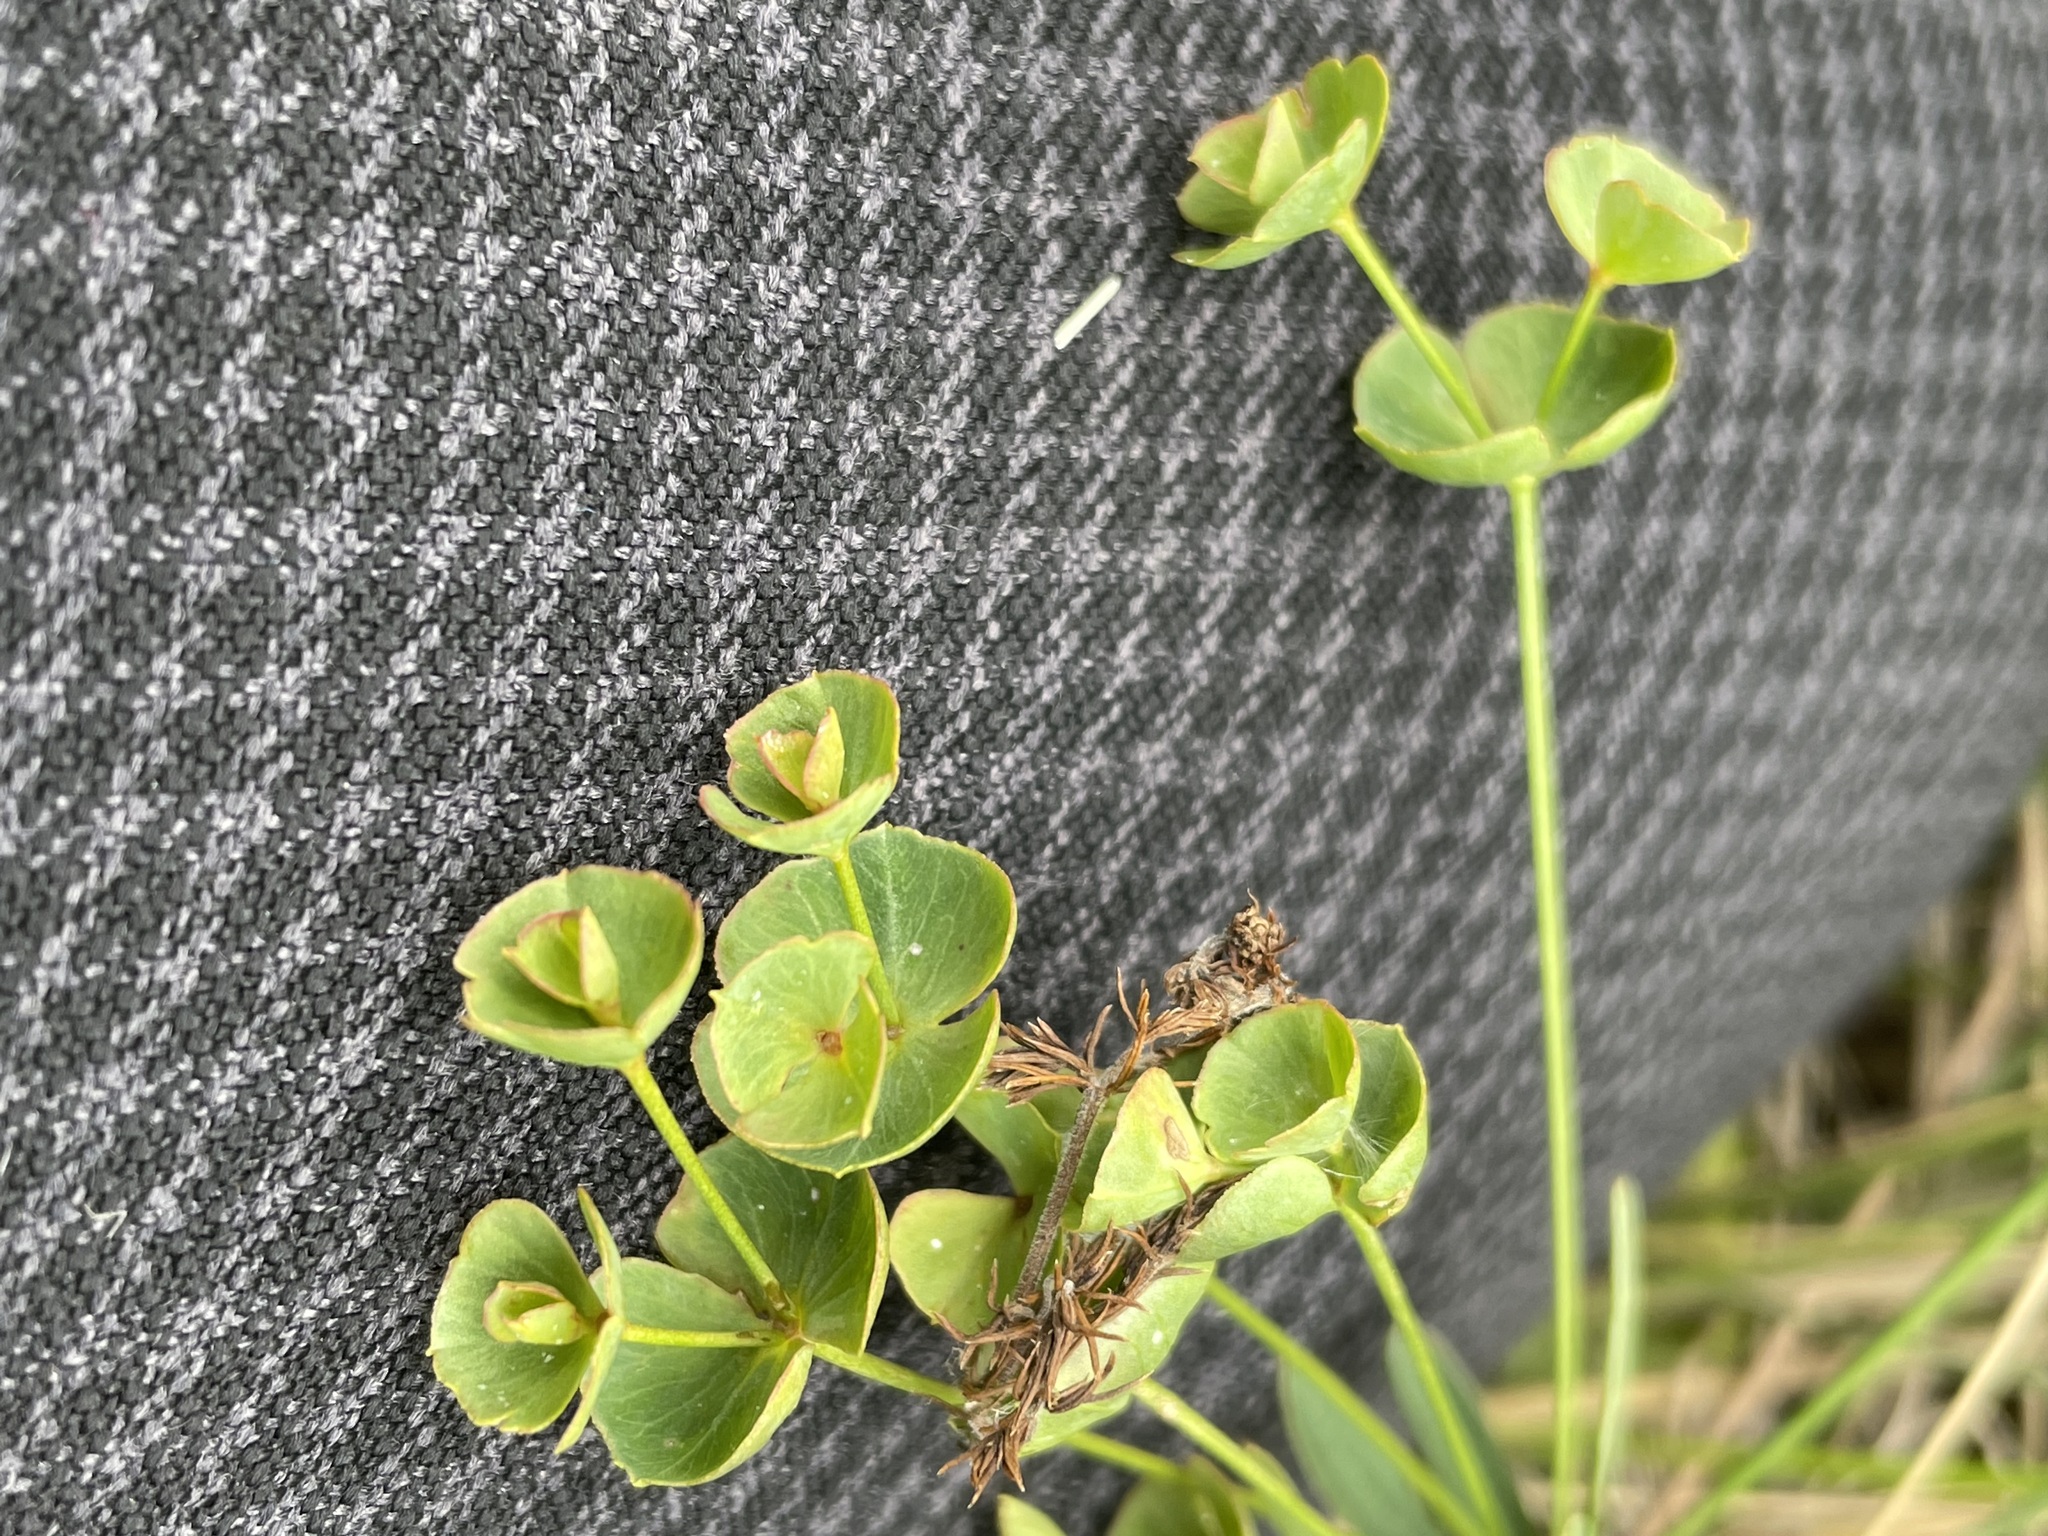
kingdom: Plantae
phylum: Tracheophyta
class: Magnoliopsida
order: Malpighiales
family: Euphorbiaceae
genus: Euphorbia
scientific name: Euphorbia microcarpa
